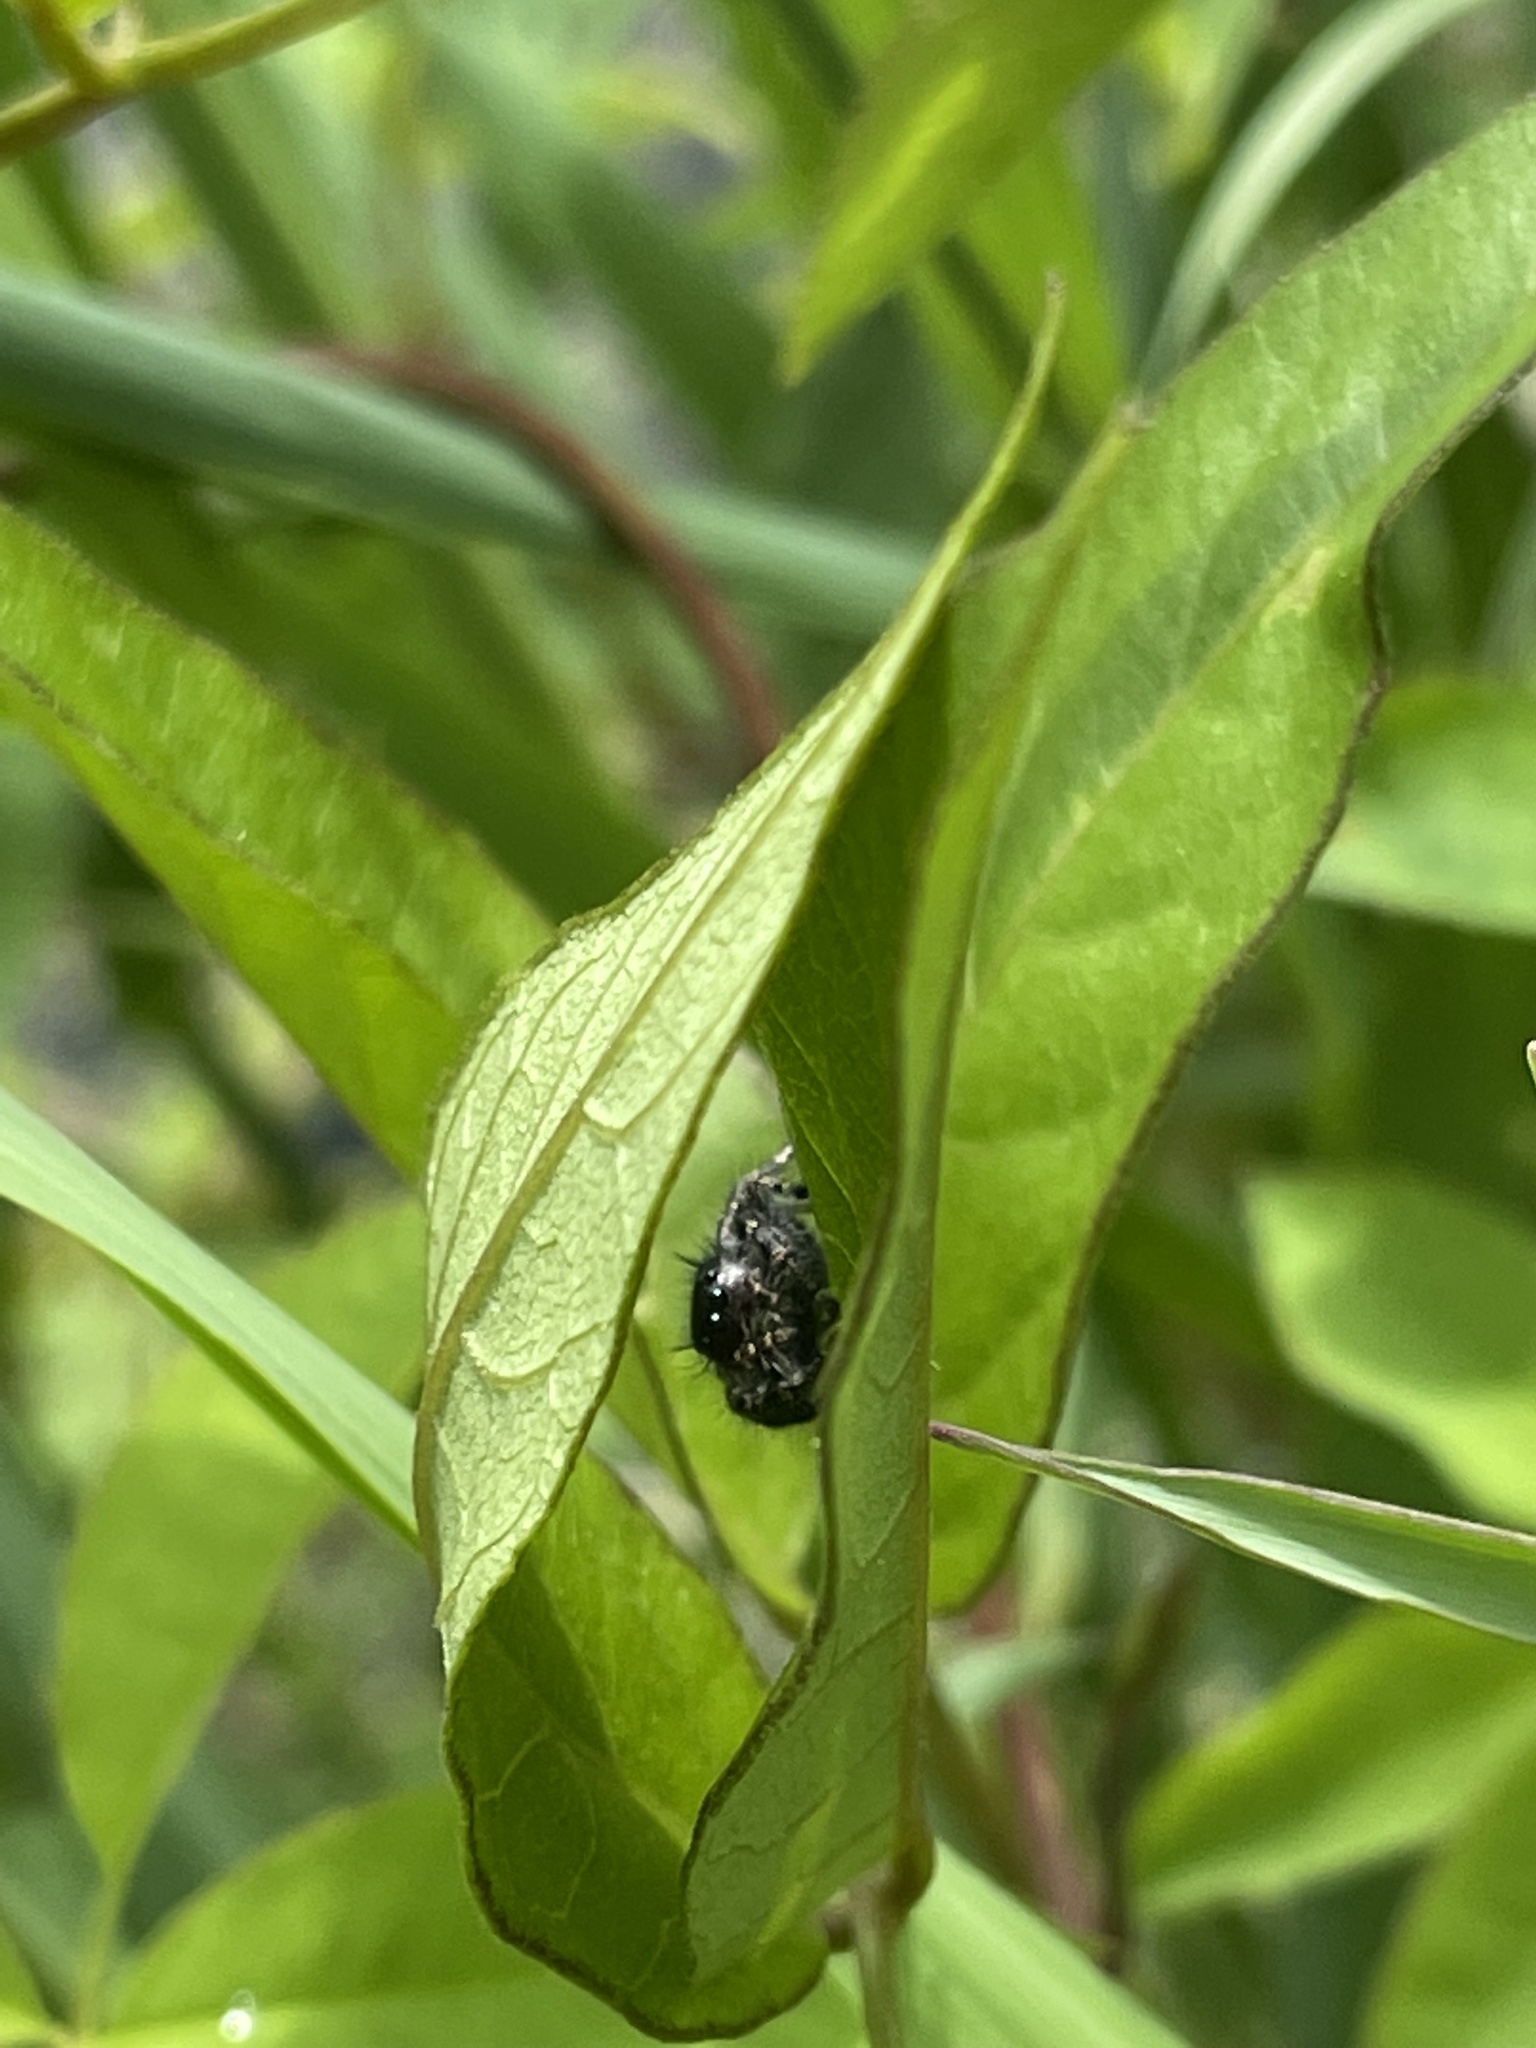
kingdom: Animalia
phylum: Arthropoda
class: Arachnida
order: Araneae
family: Salticidae
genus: Phidippus
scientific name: Phidippus audax
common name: Bold jumper
